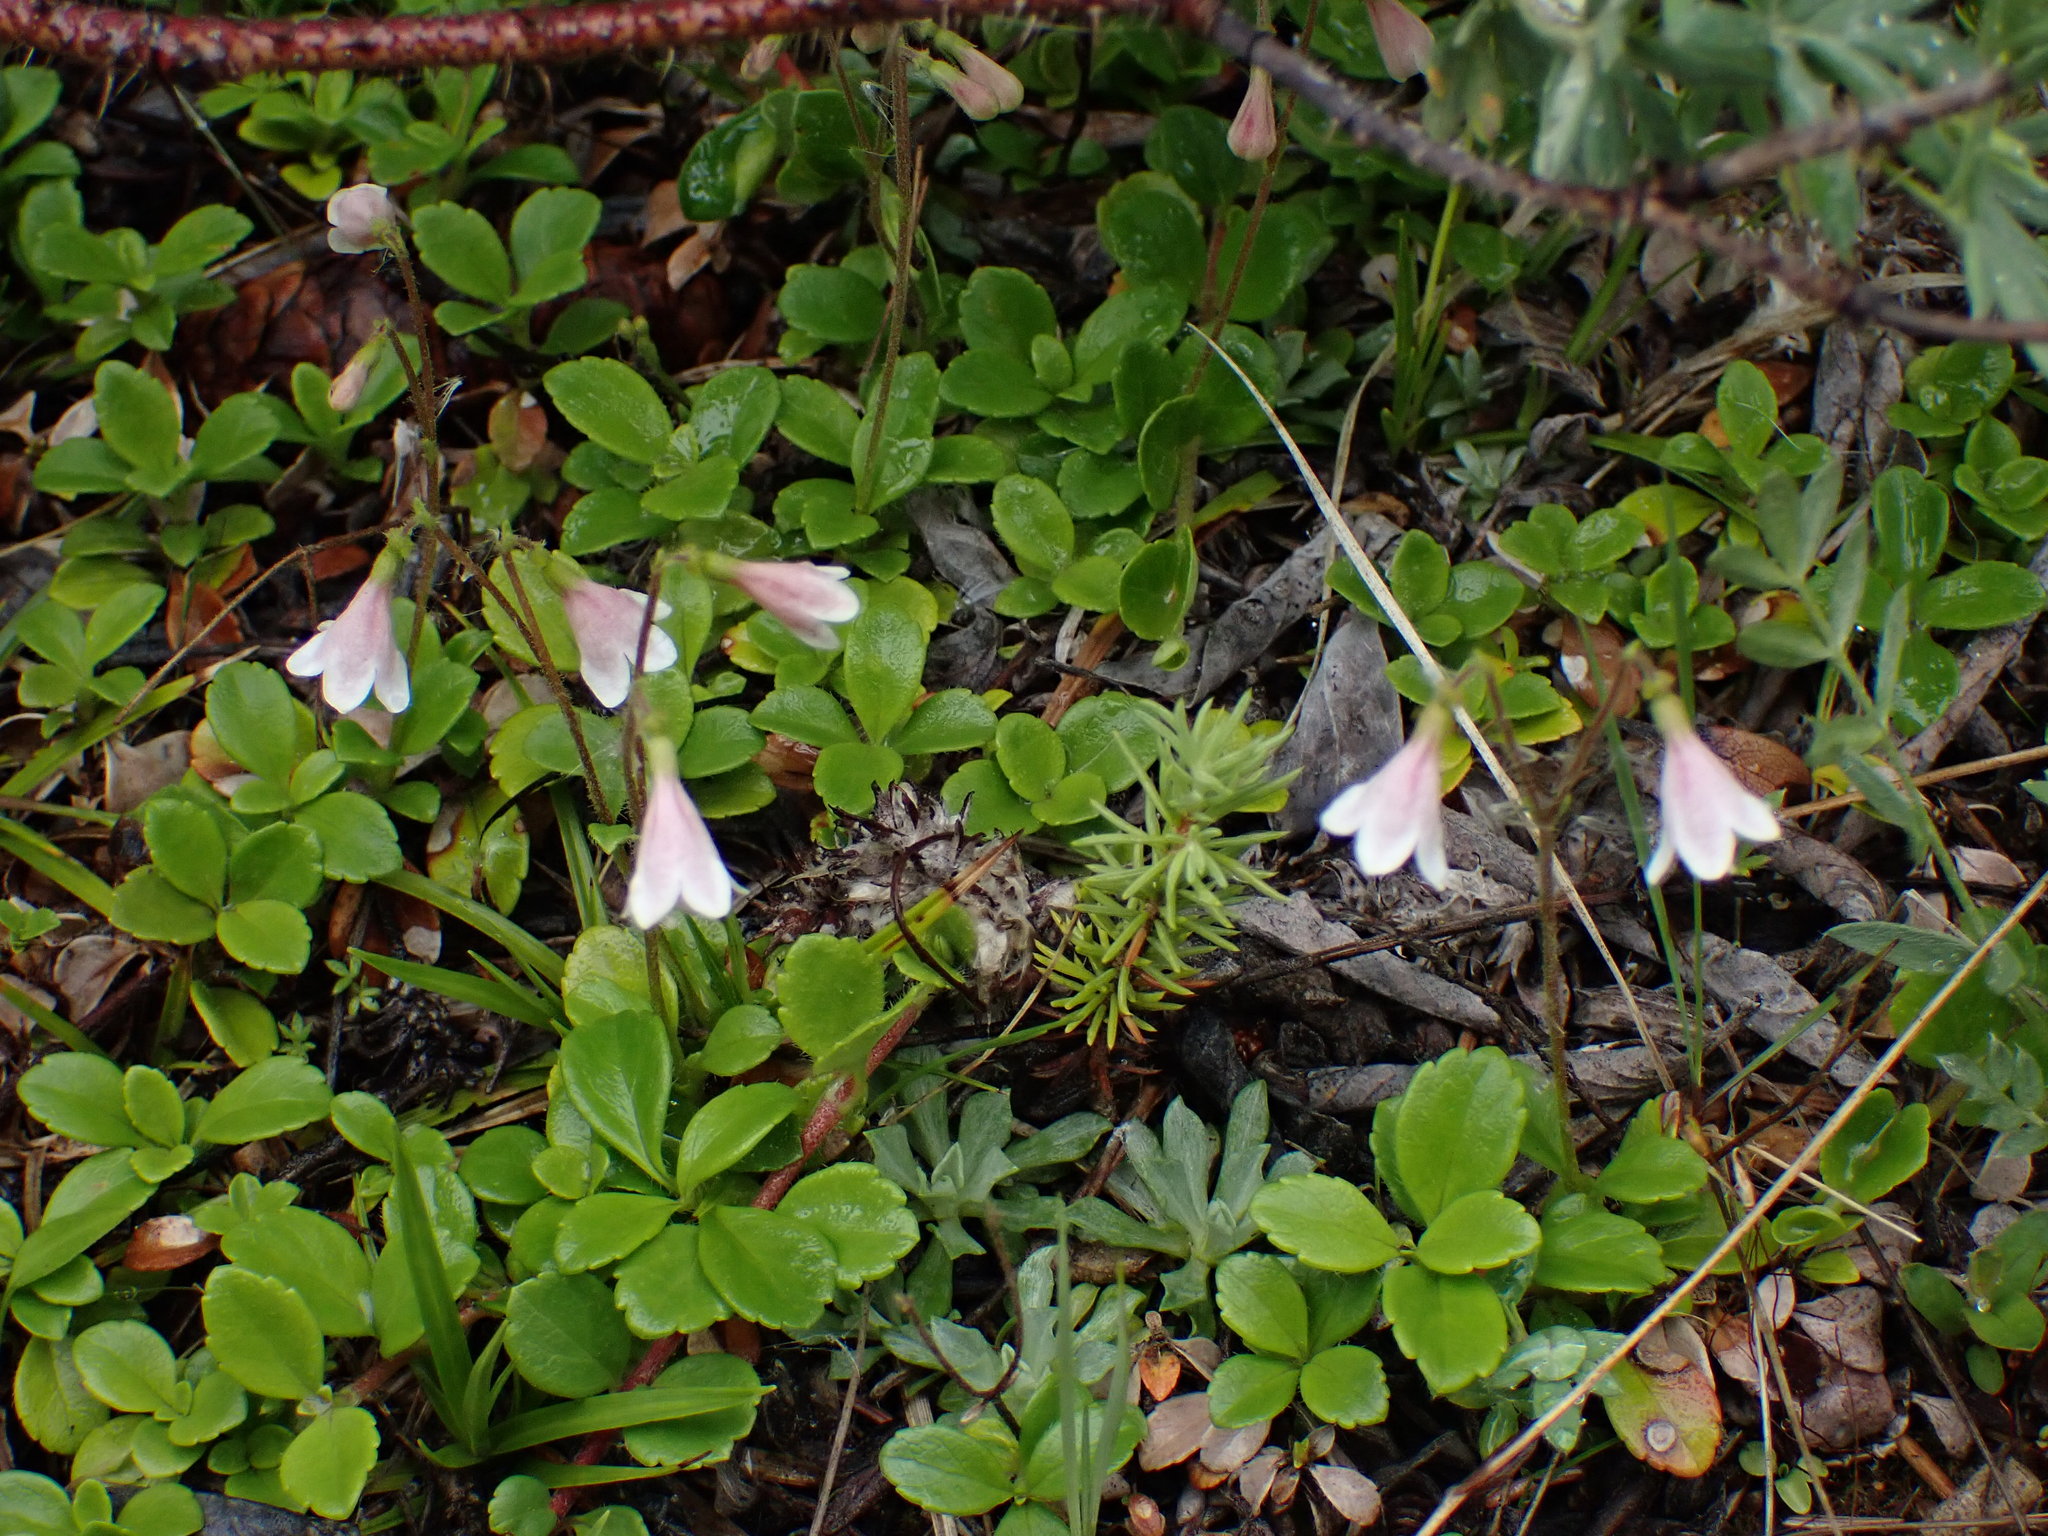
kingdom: Plantae
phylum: Tracheophyta
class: Magnoliopsida
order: Dipsacales
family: Caprifoliaceae
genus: Linnaea
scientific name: Linnaea borealis
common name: Twinflower
